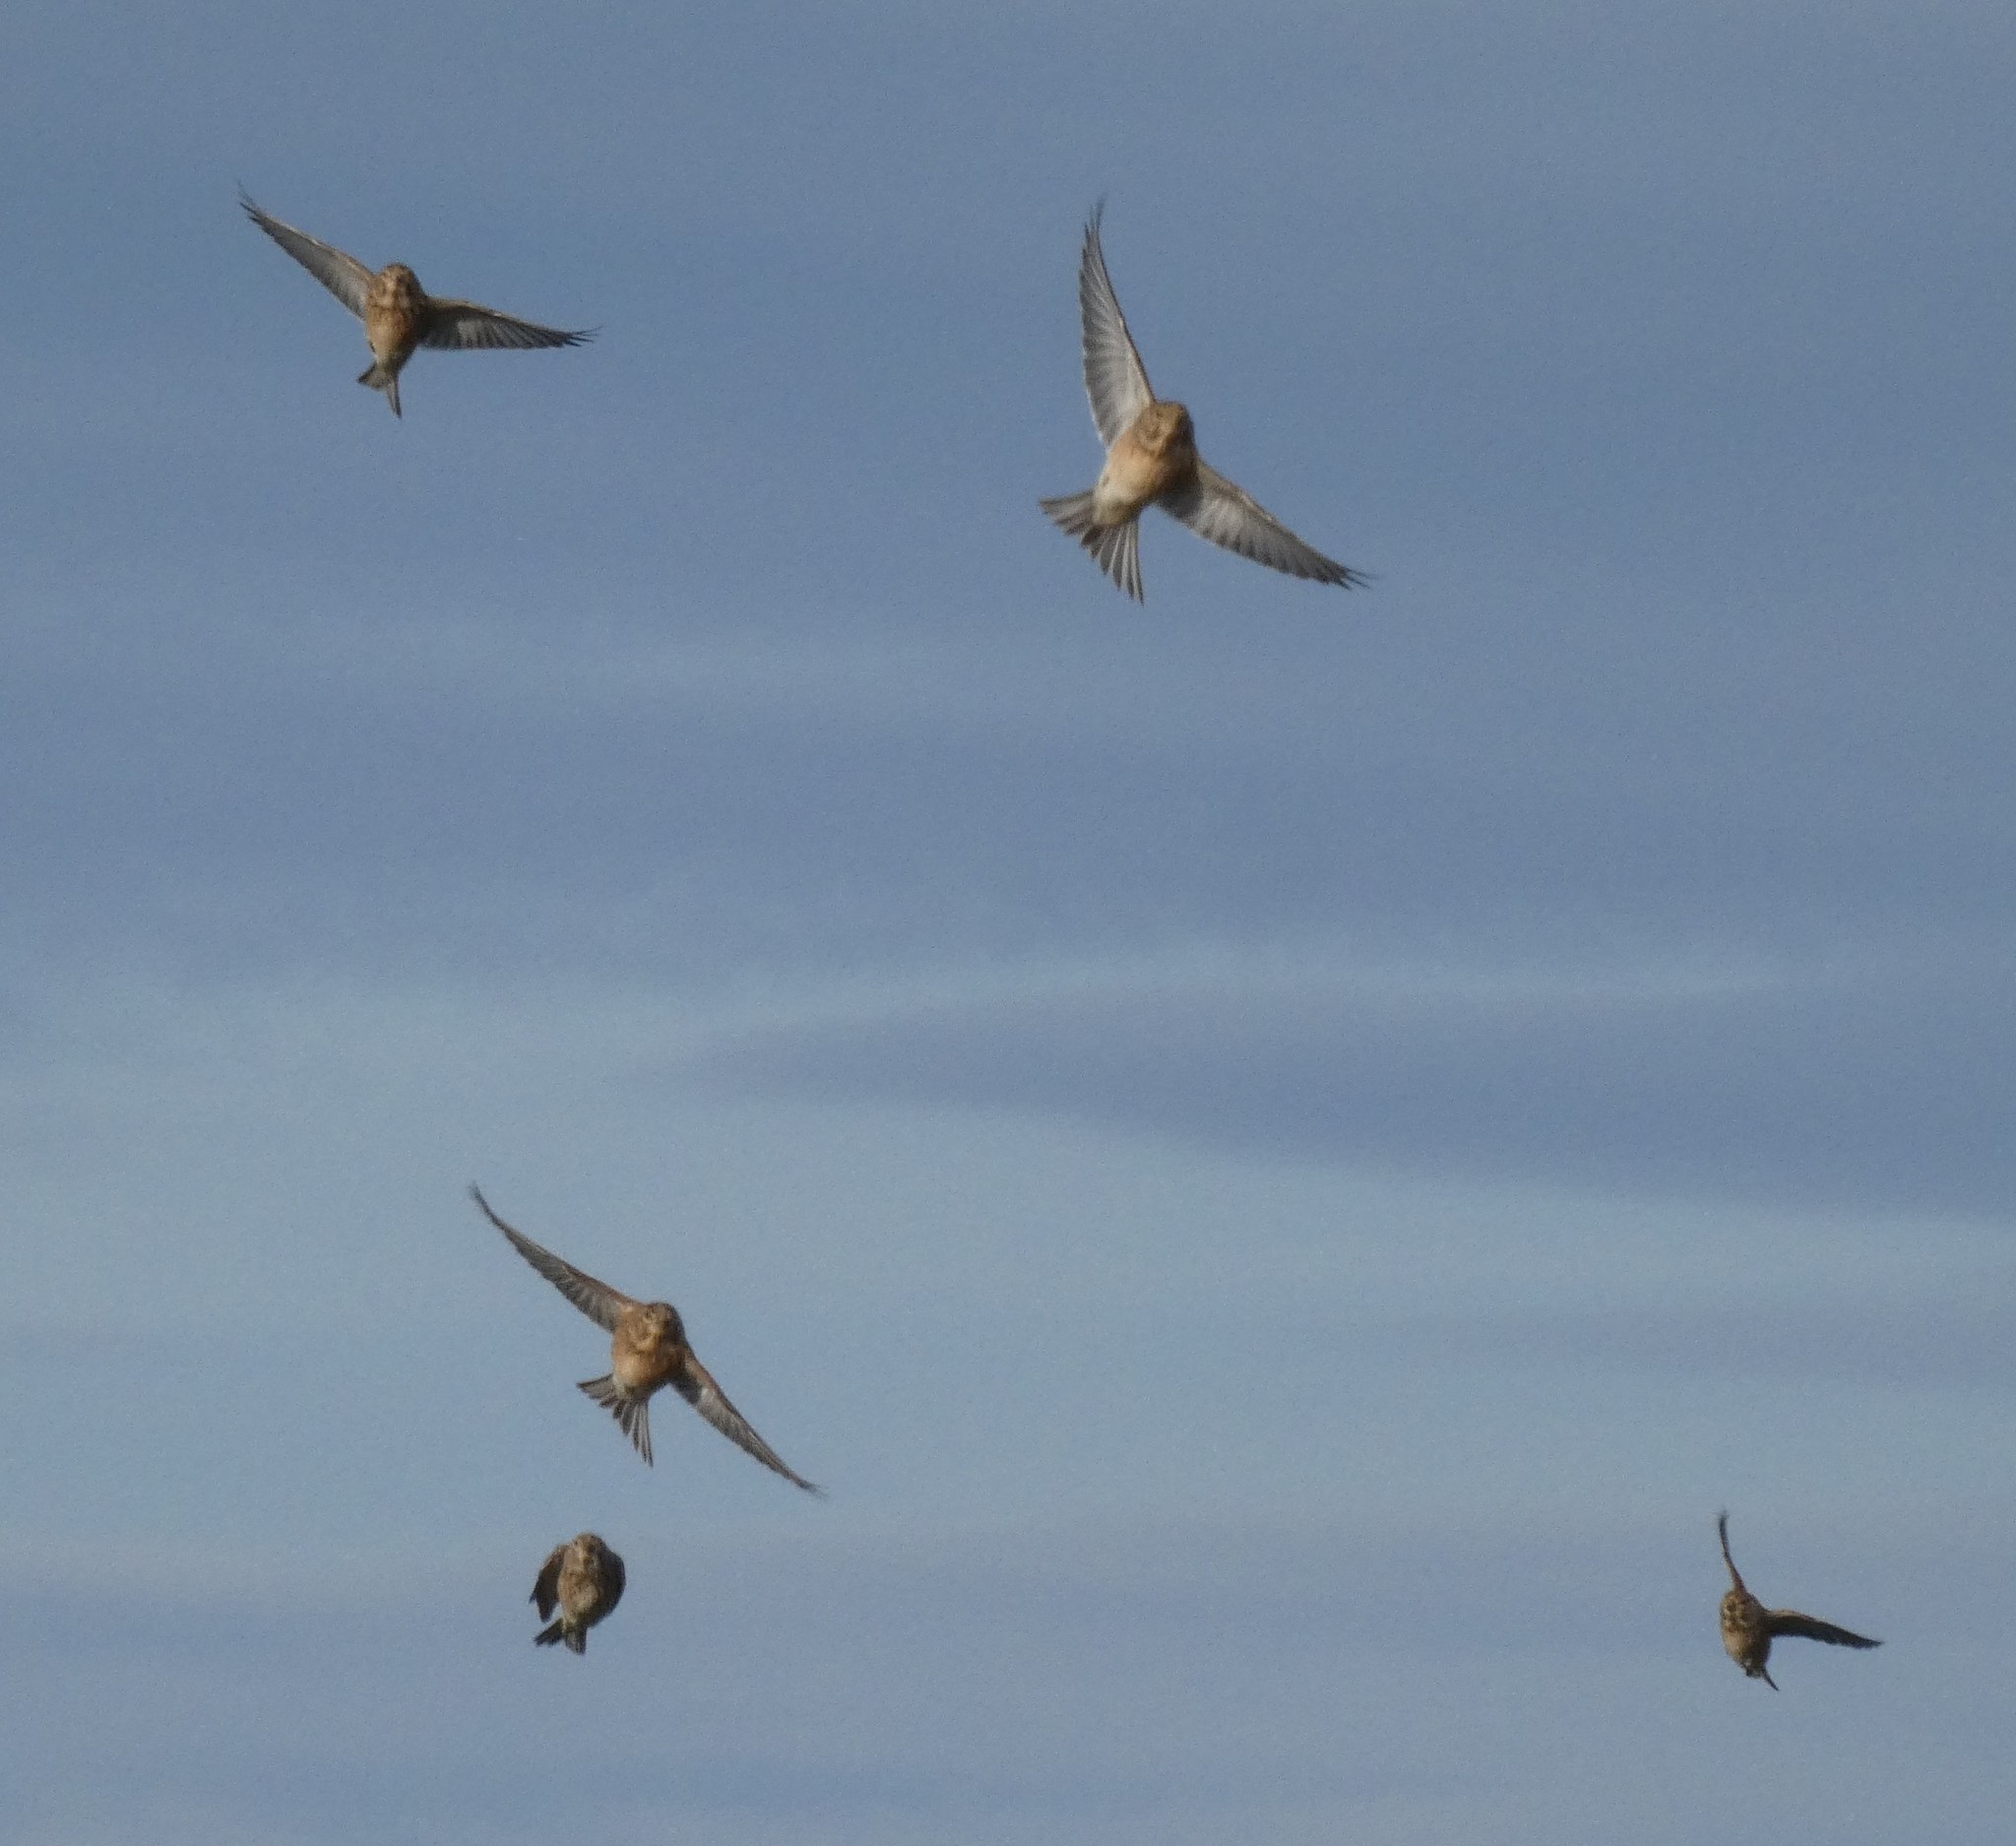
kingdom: Animalia
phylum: Chordata
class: Aves
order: Passeriformes
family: Fringillidae
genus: Linaria
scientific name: Linaria cannabina
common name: Common linnet
